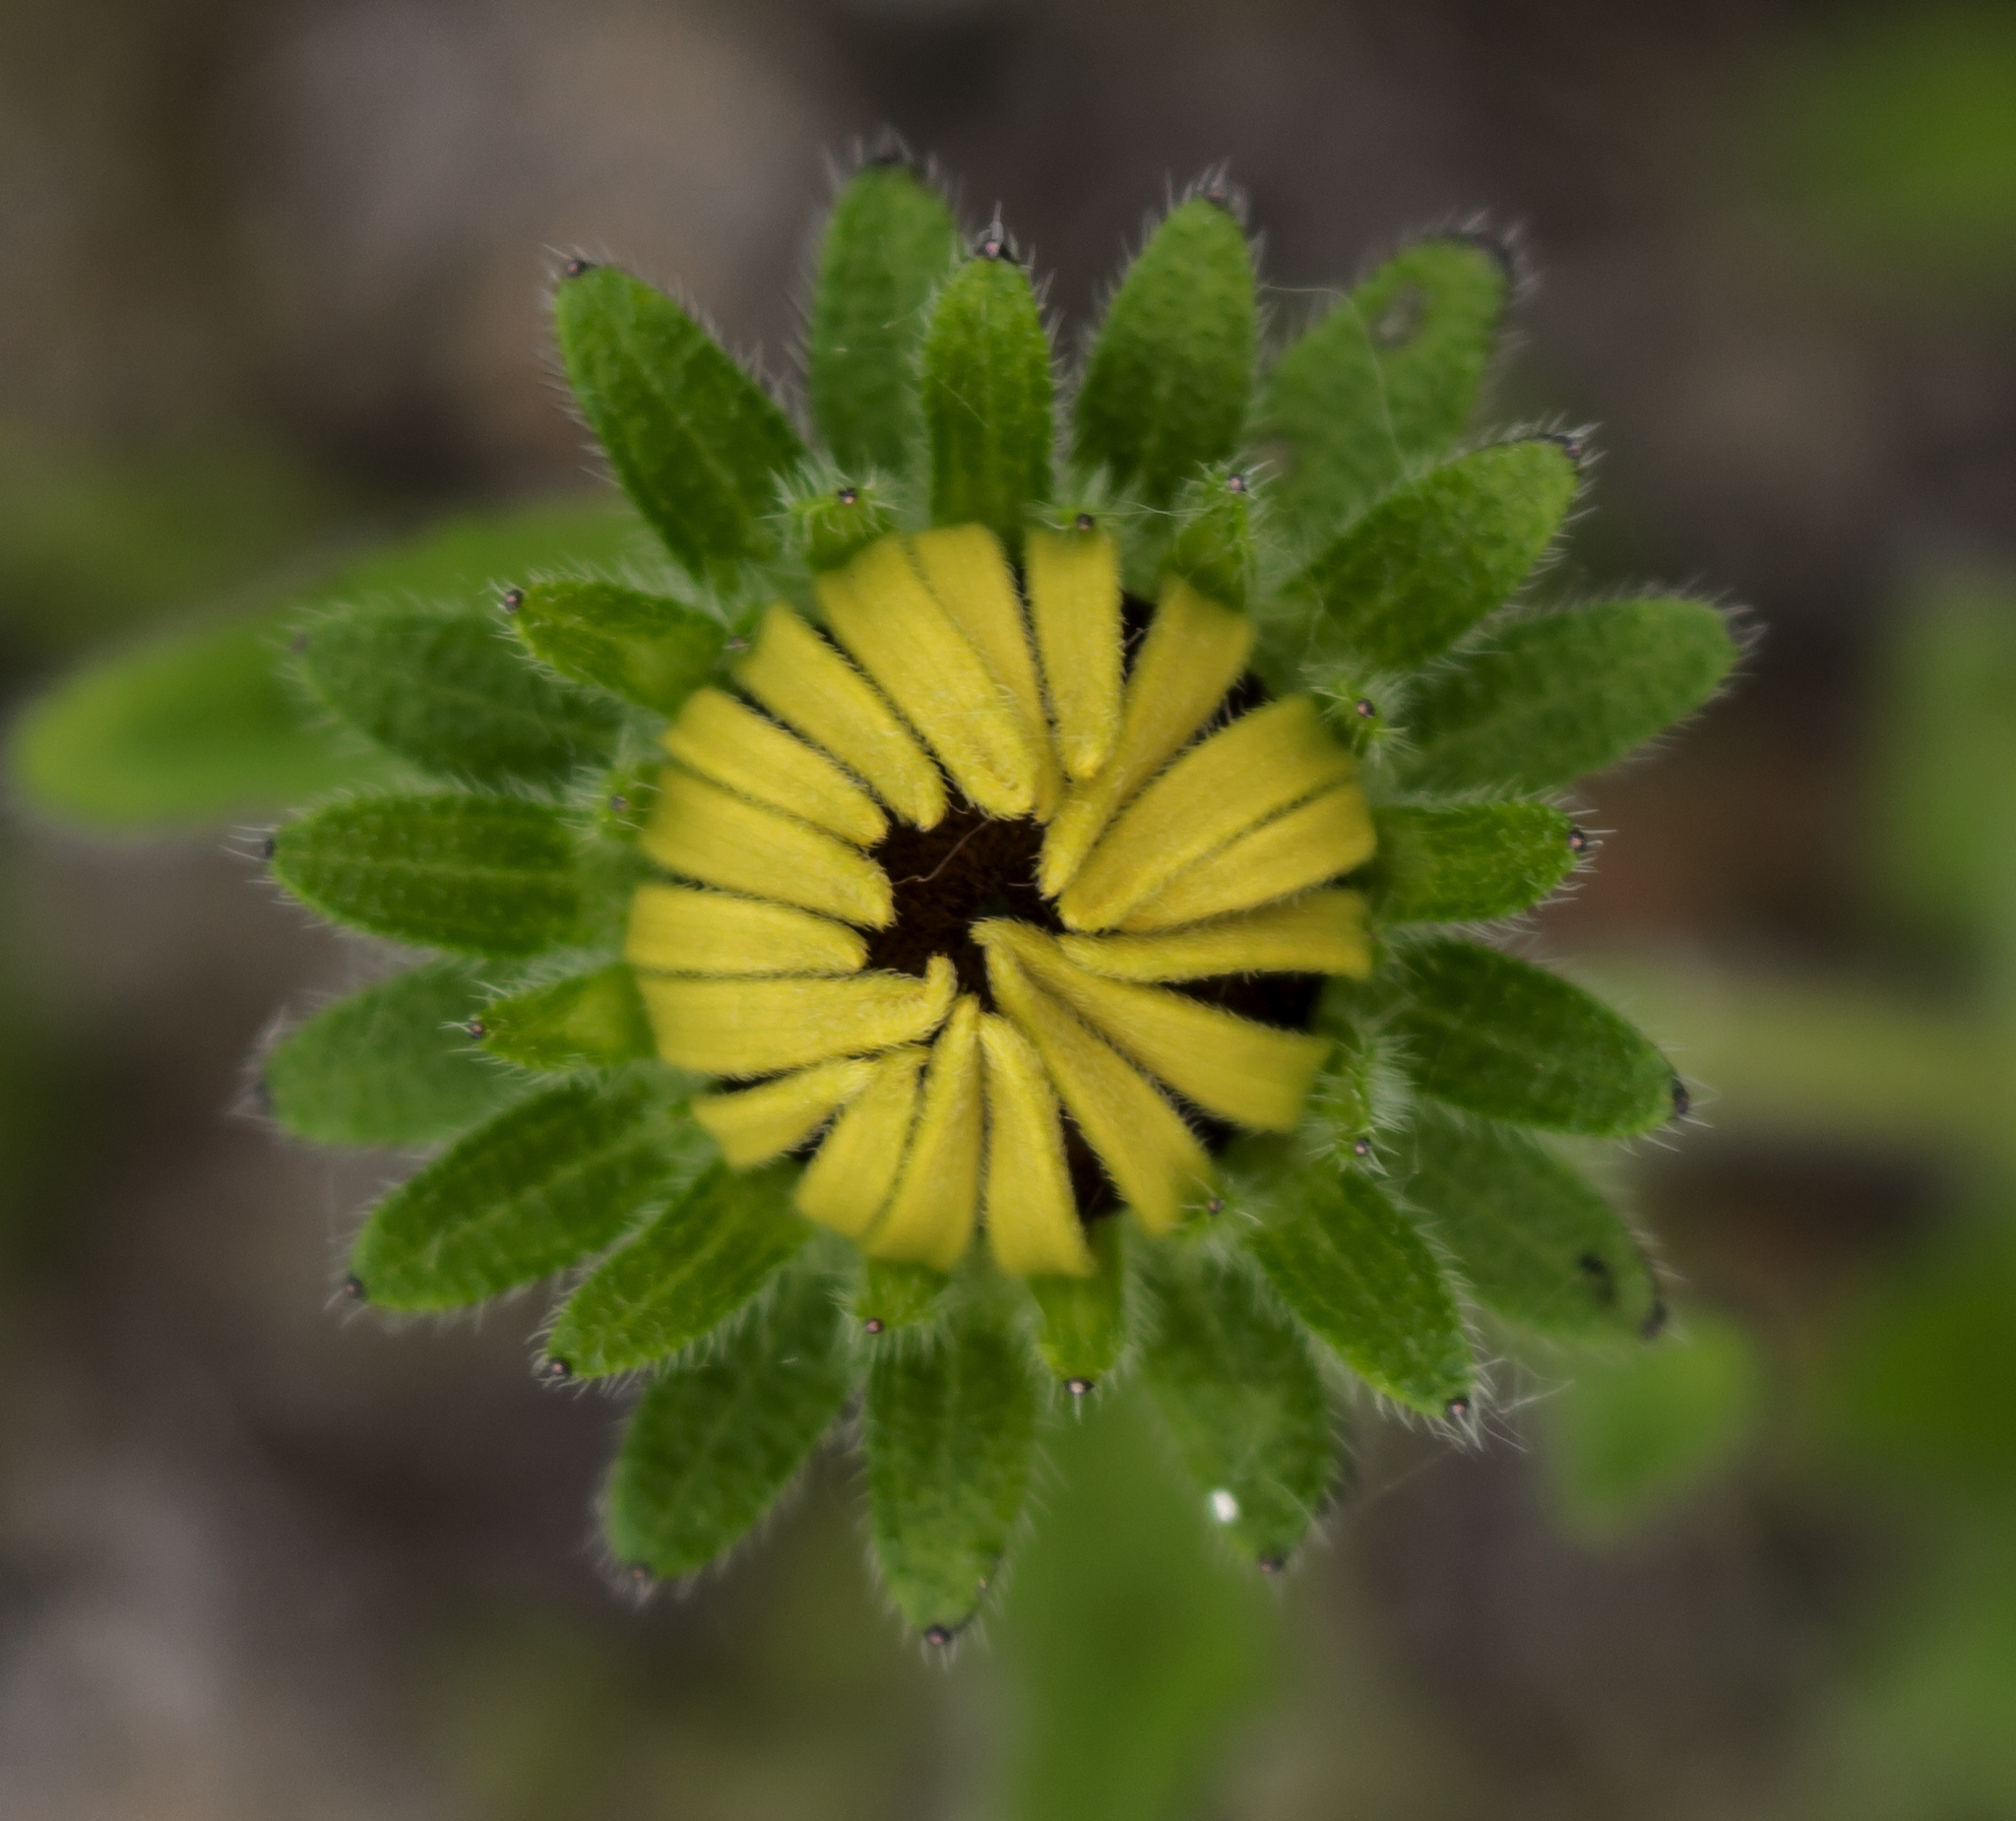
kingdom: Plantae
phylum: Tracheophyta
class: Magnoliopsida
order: Asterales
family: Asteraceae
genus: Rudbeckia
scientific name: Rudbeckia hirta
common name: Black-eyed-susan
